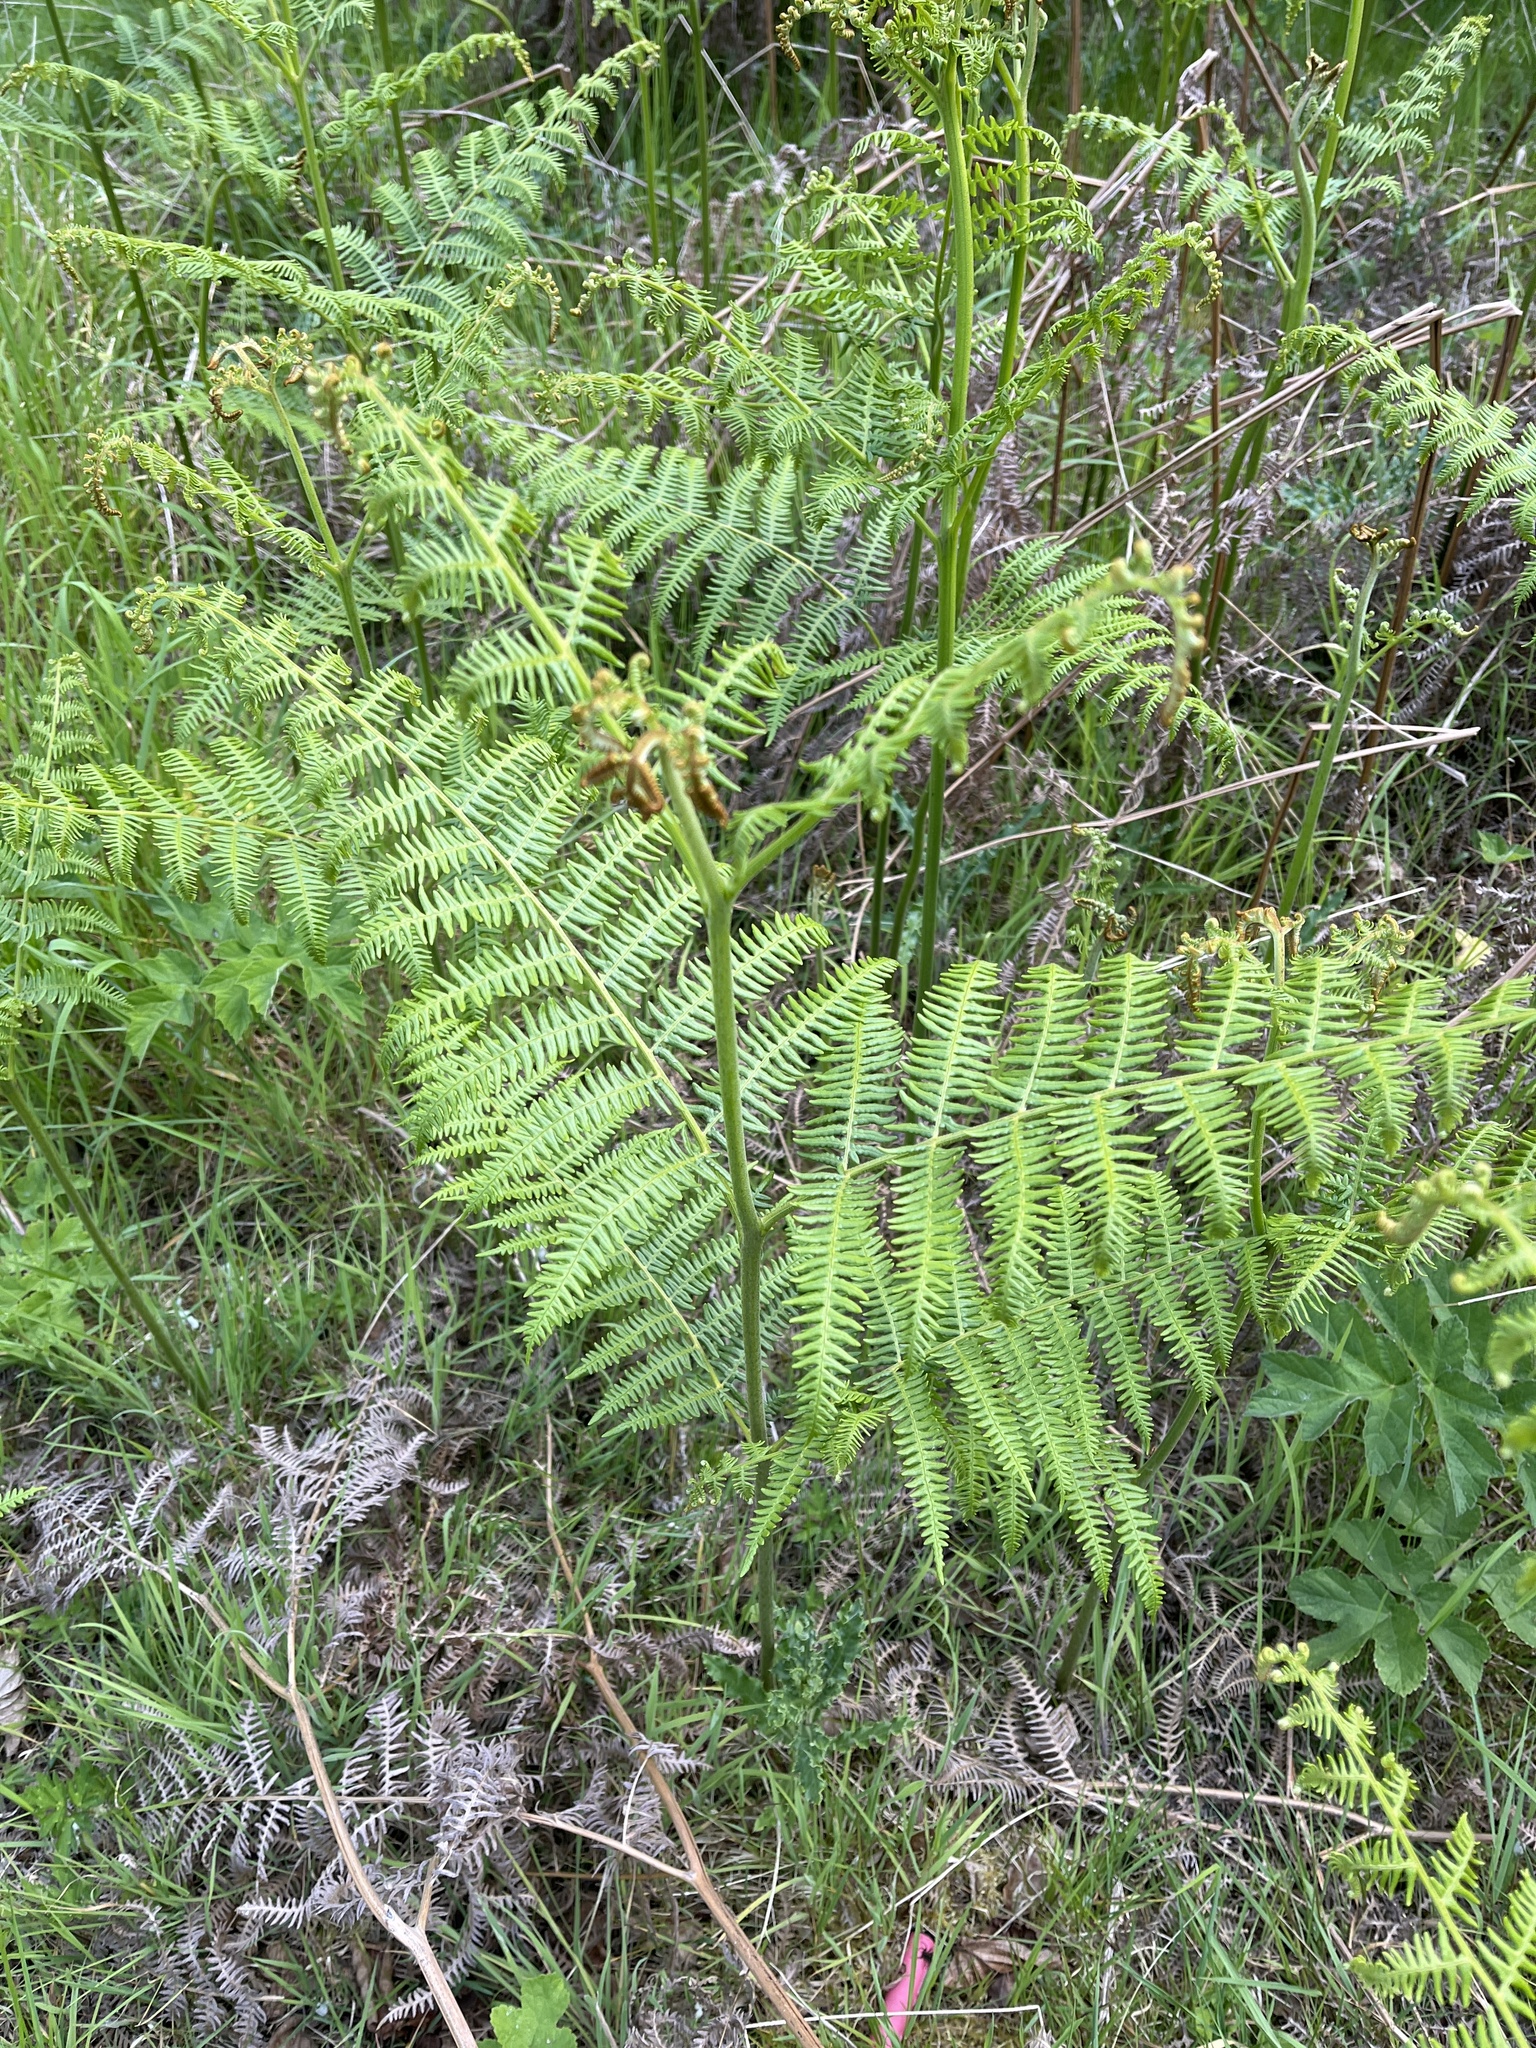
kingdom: Plantae
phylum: Tracheophyta
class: Polypodiopsida
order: Polypodiales
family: Dennstaedtiaceae
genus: Pteridium
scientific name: Pteridium aquilinum
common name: Bracken
